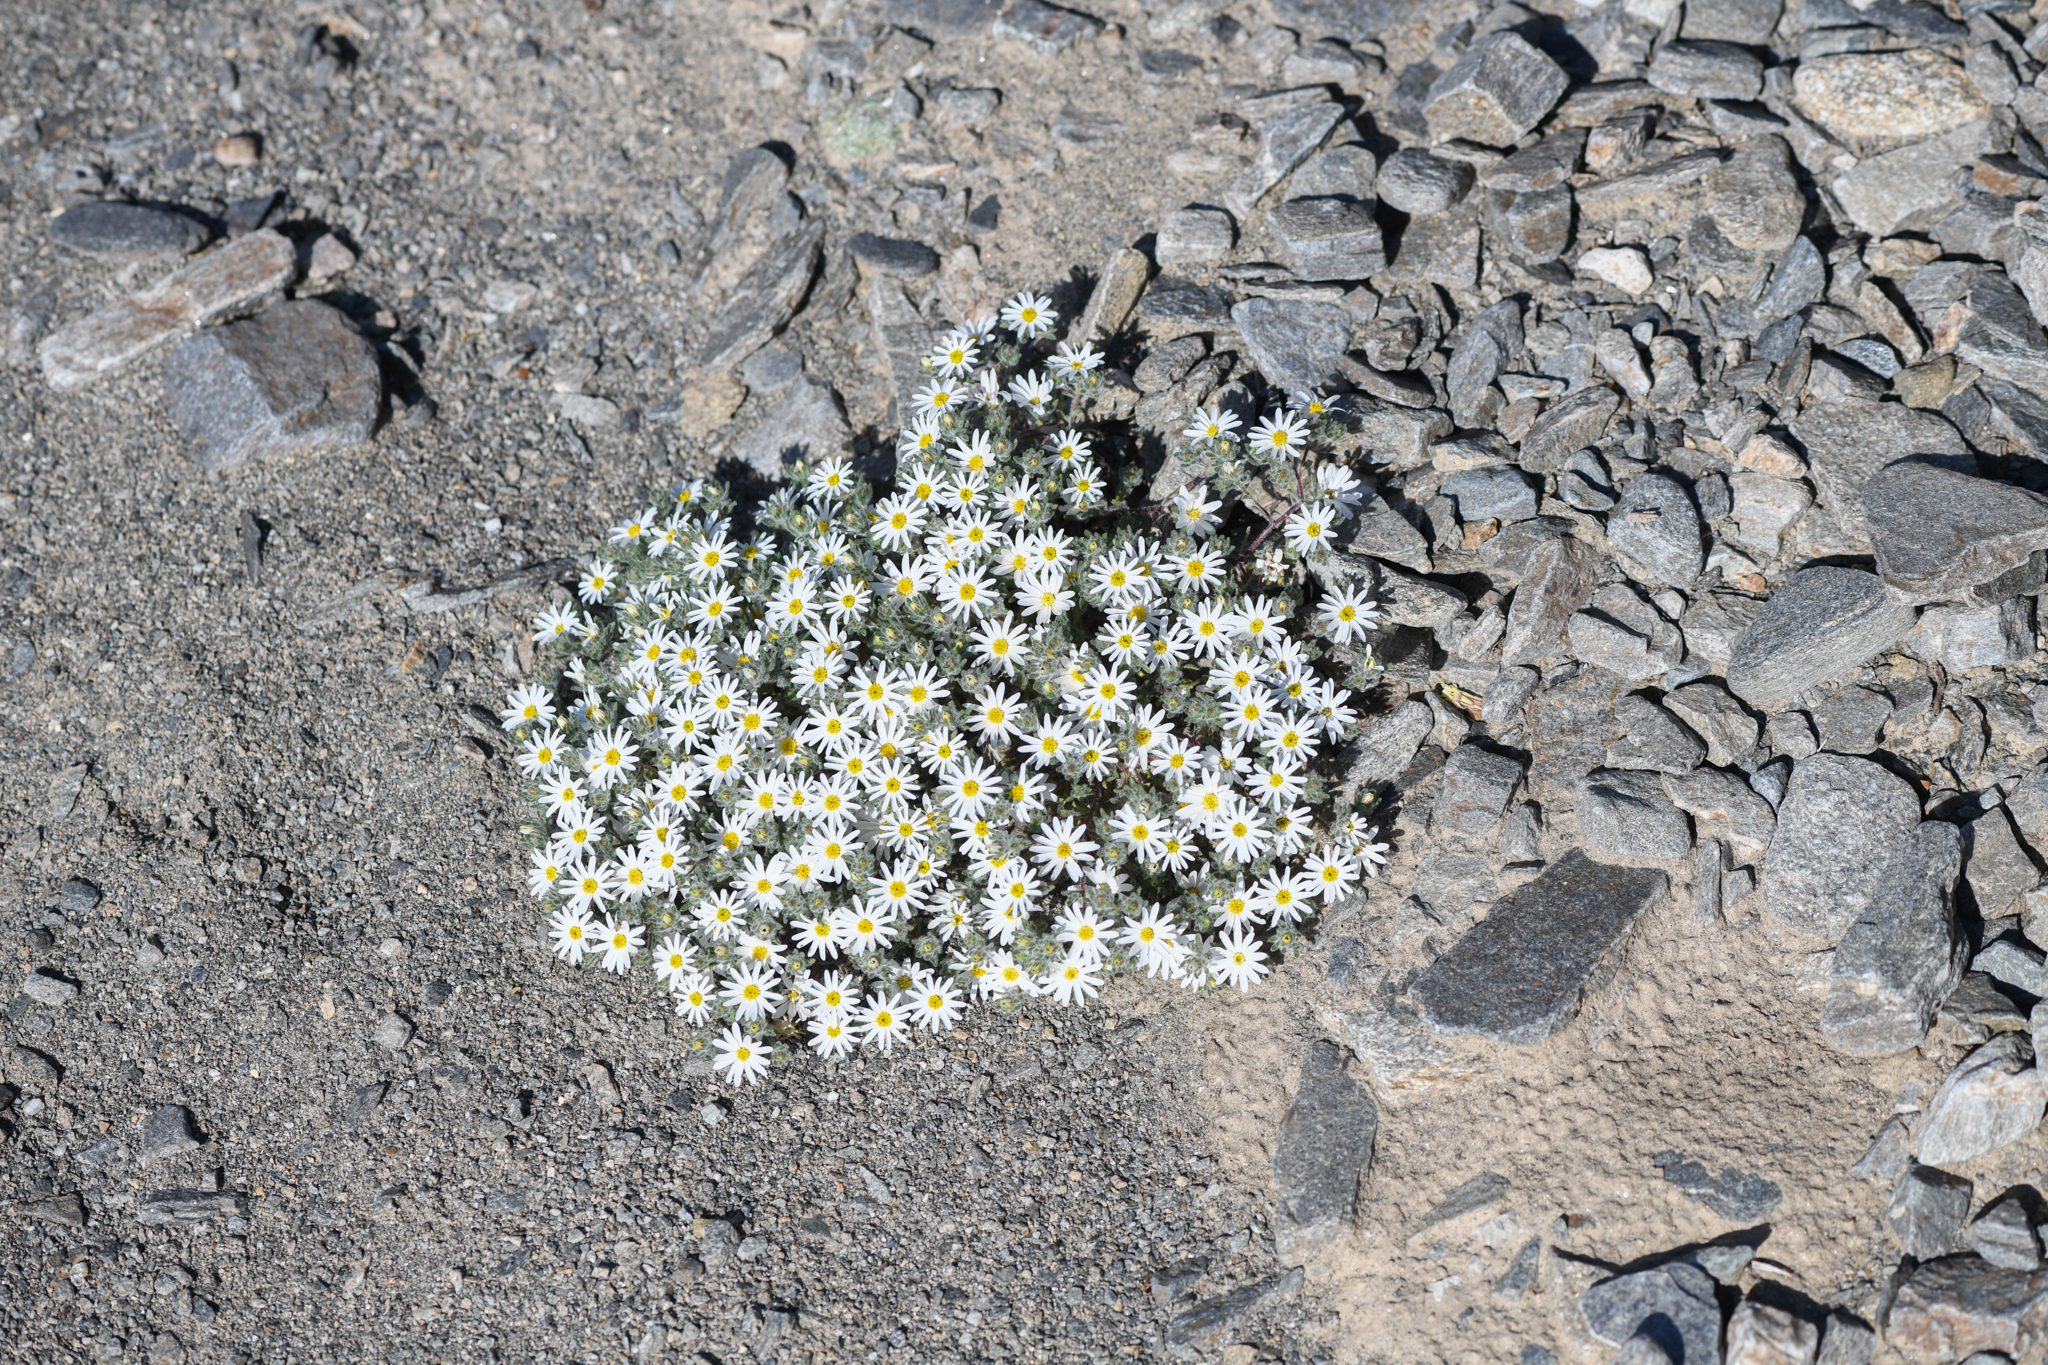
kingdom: Plantae
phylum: Tracheophyta
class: Magnoliopsida
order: Asterales
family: Asteraceae
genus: Monoptilon
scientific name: Monoptilon bellioides
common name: Bristly desertstar
